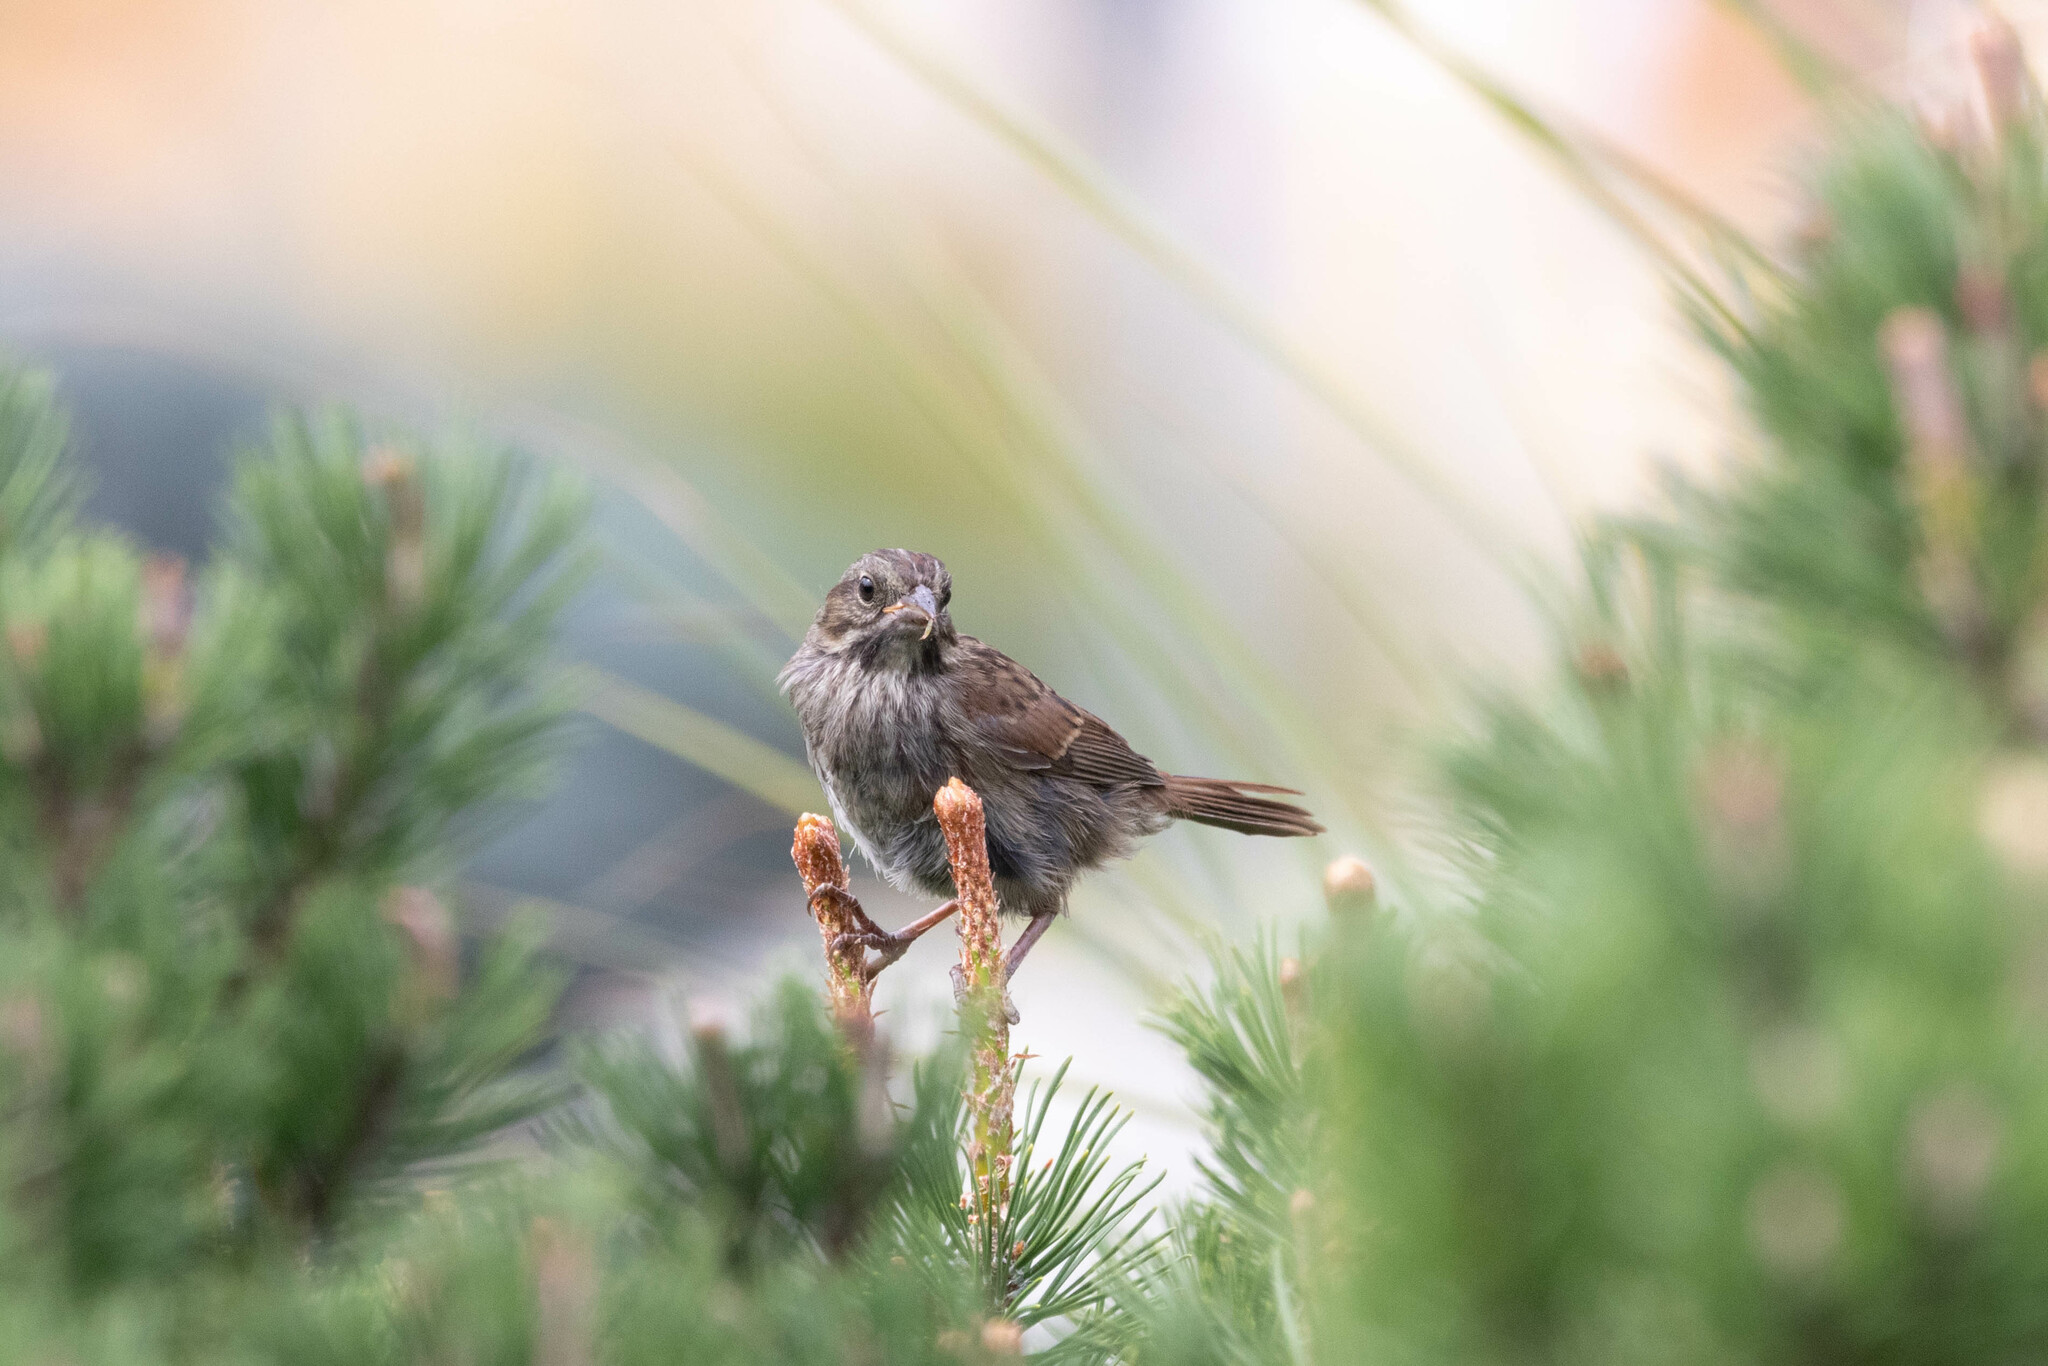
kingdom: Animalia
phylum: Chordata
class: Aves
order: Passeriformes
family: Passerellidae
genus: Melospiza
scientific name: Melospiza melodia
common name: Song sparrow
